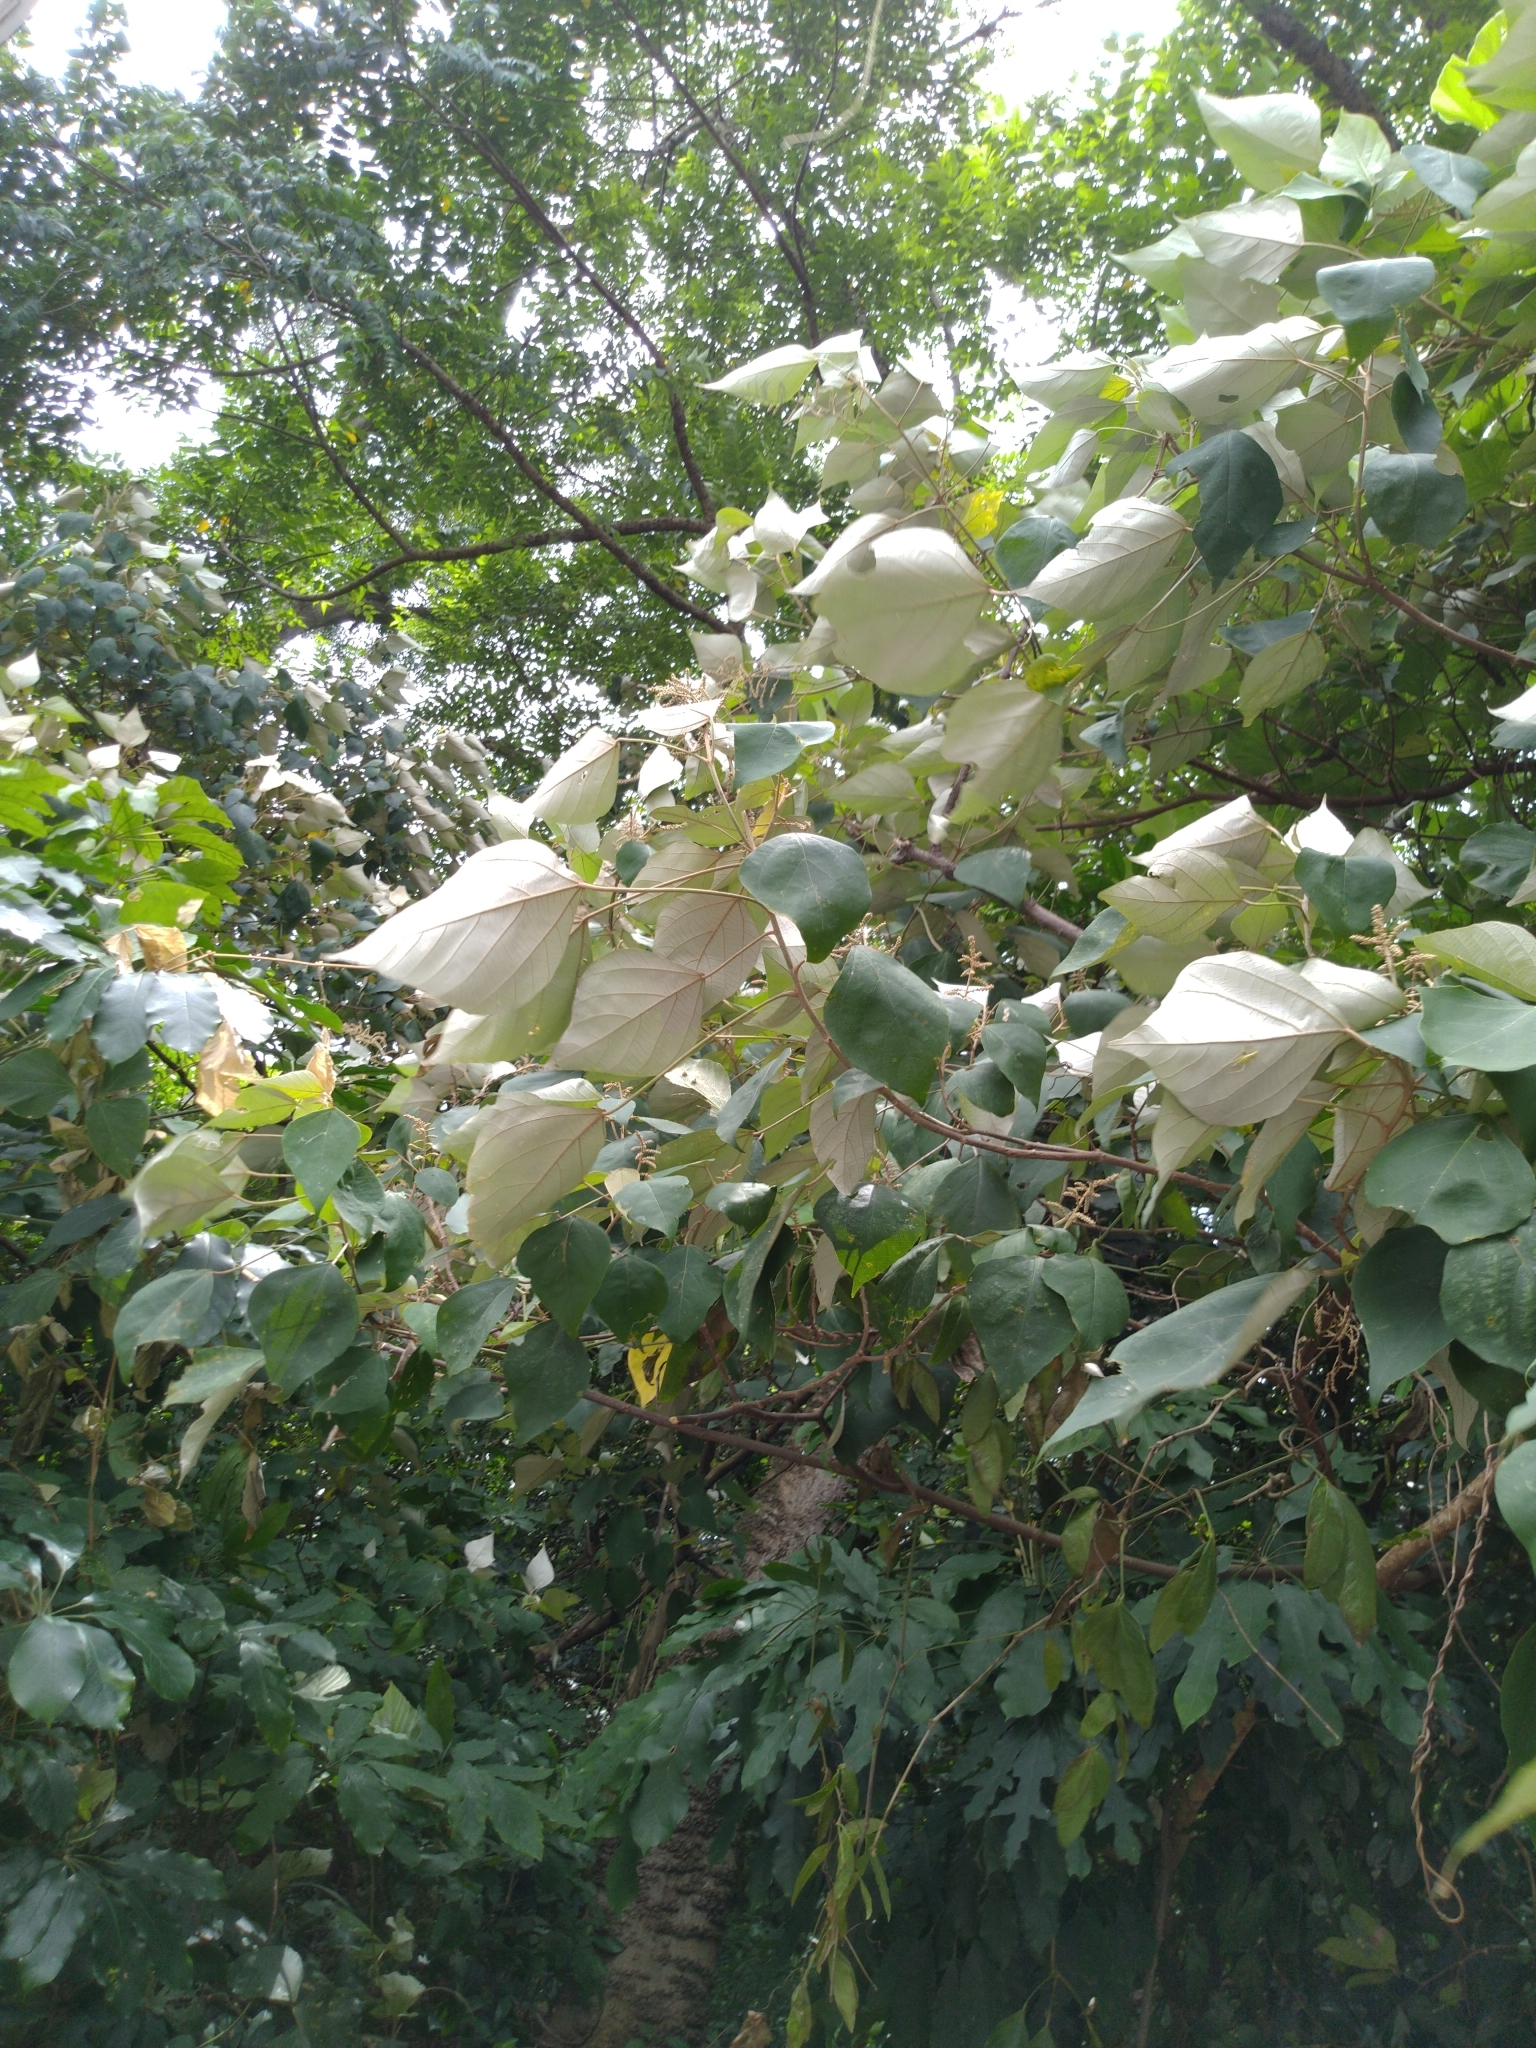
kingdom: Plantae
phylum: Tracheophyta
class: Magnoliopsida
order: Malpighiales
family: Euphorbiaceae
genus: Mallotus
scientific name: Mallotus paniculatus
